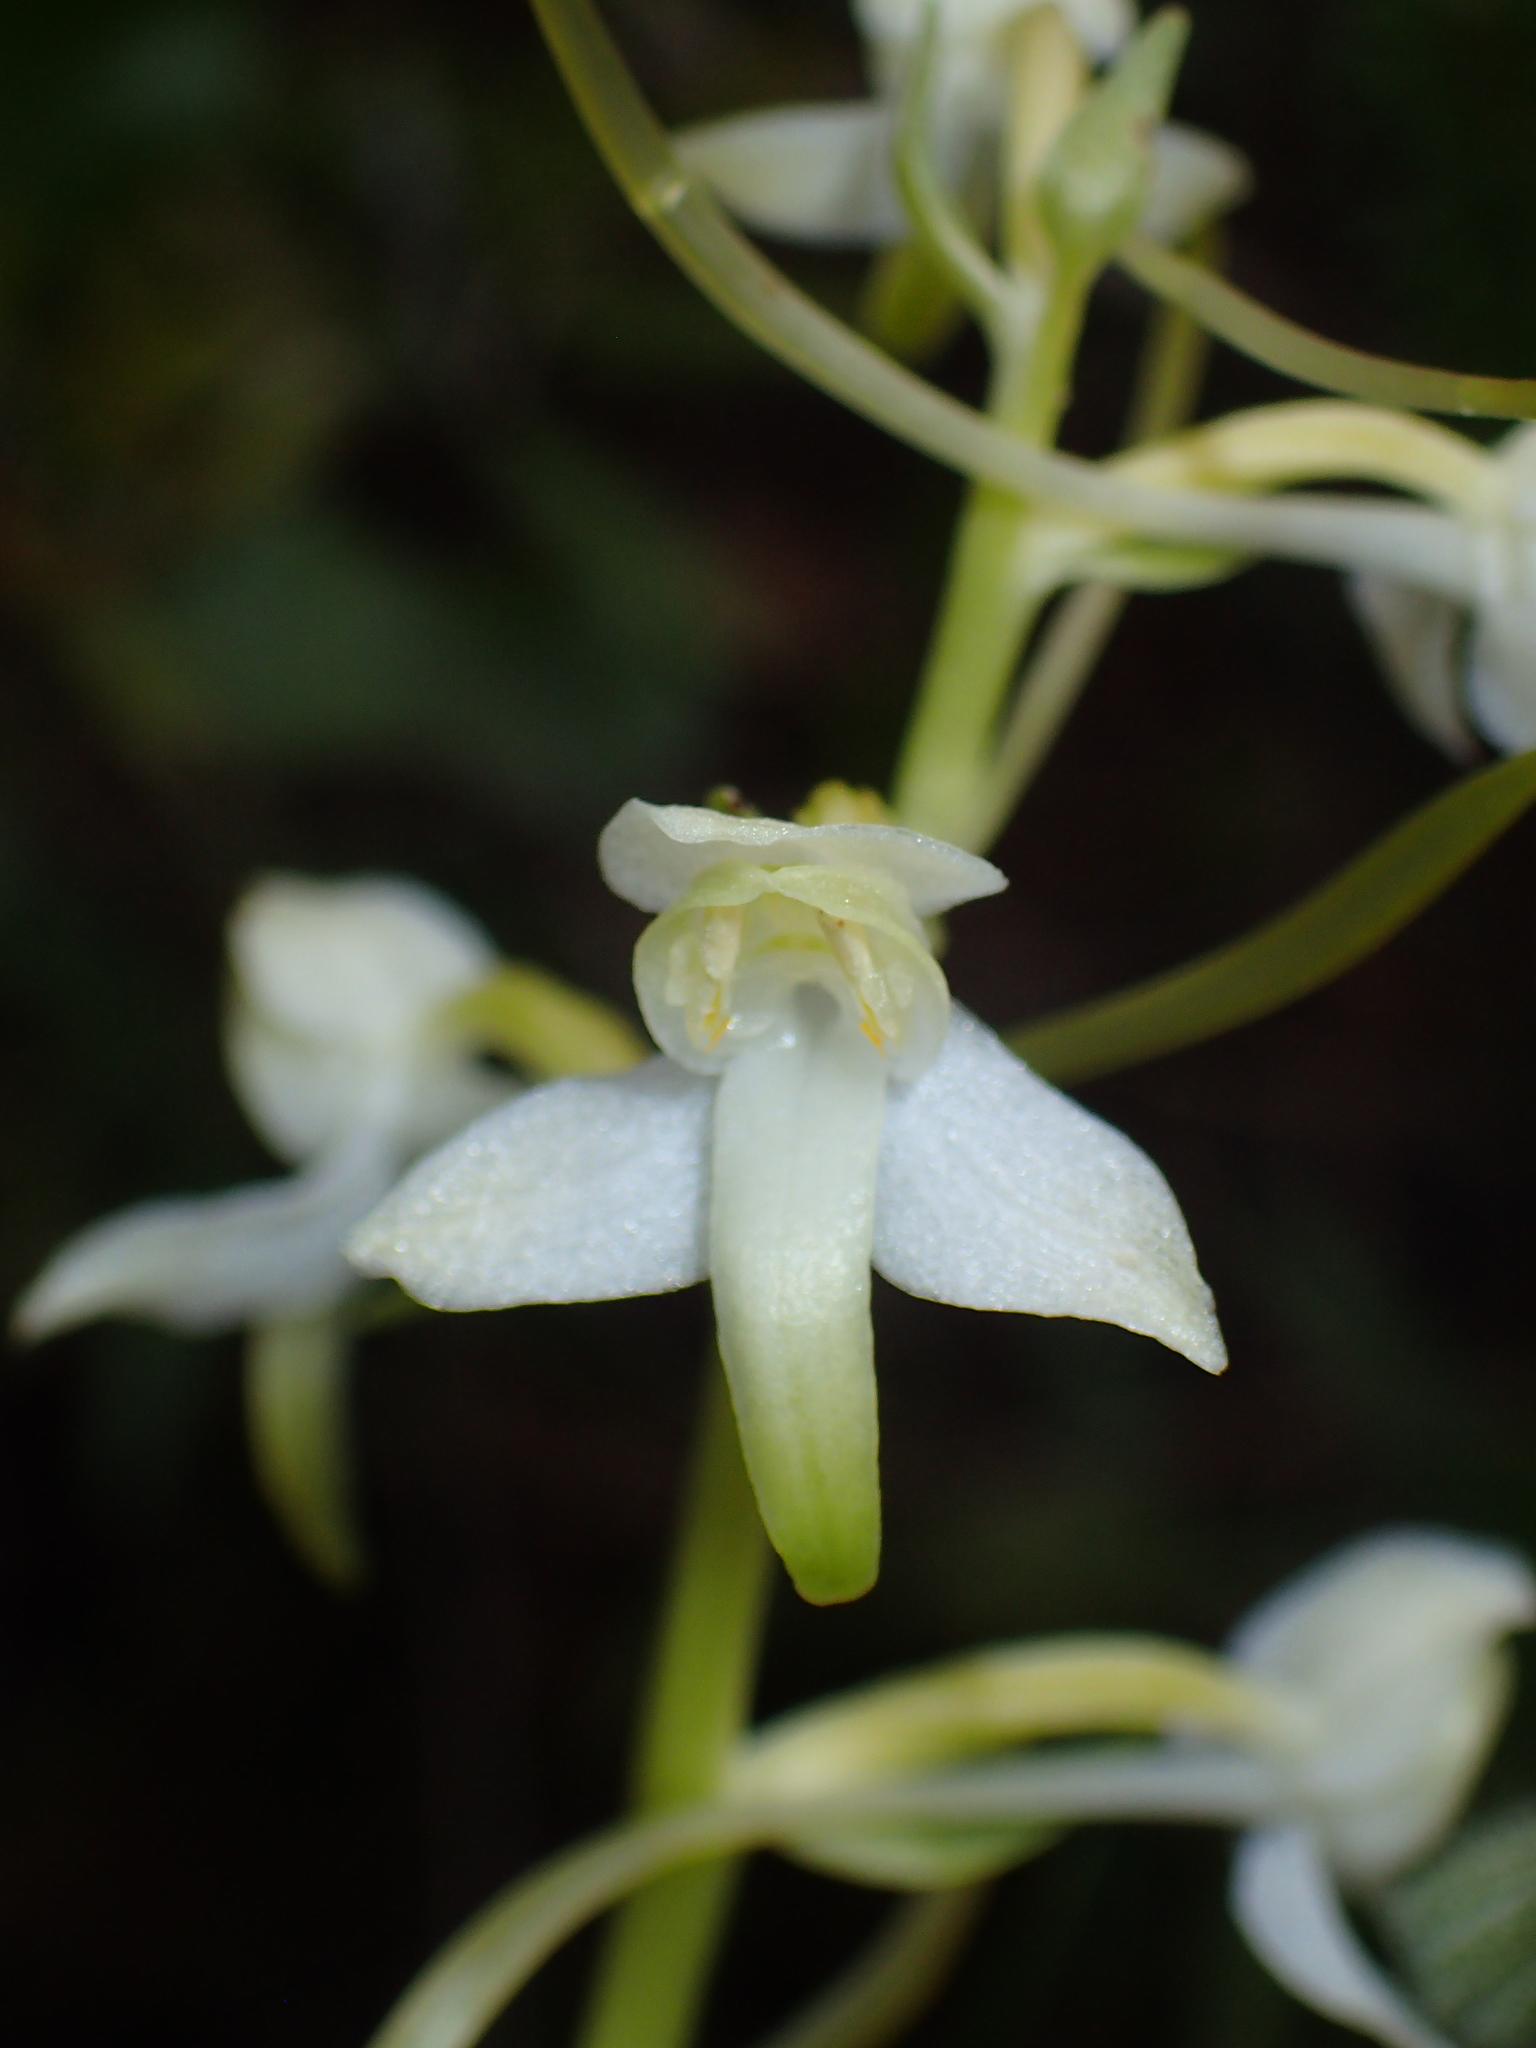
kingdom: Plantae
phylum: Tracheophyta
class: Liliopsida
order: Asparagales
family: Orchidaceae
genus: Platanthera
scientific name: Platanthera chlorantha
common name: Greater butterfly-orchid
